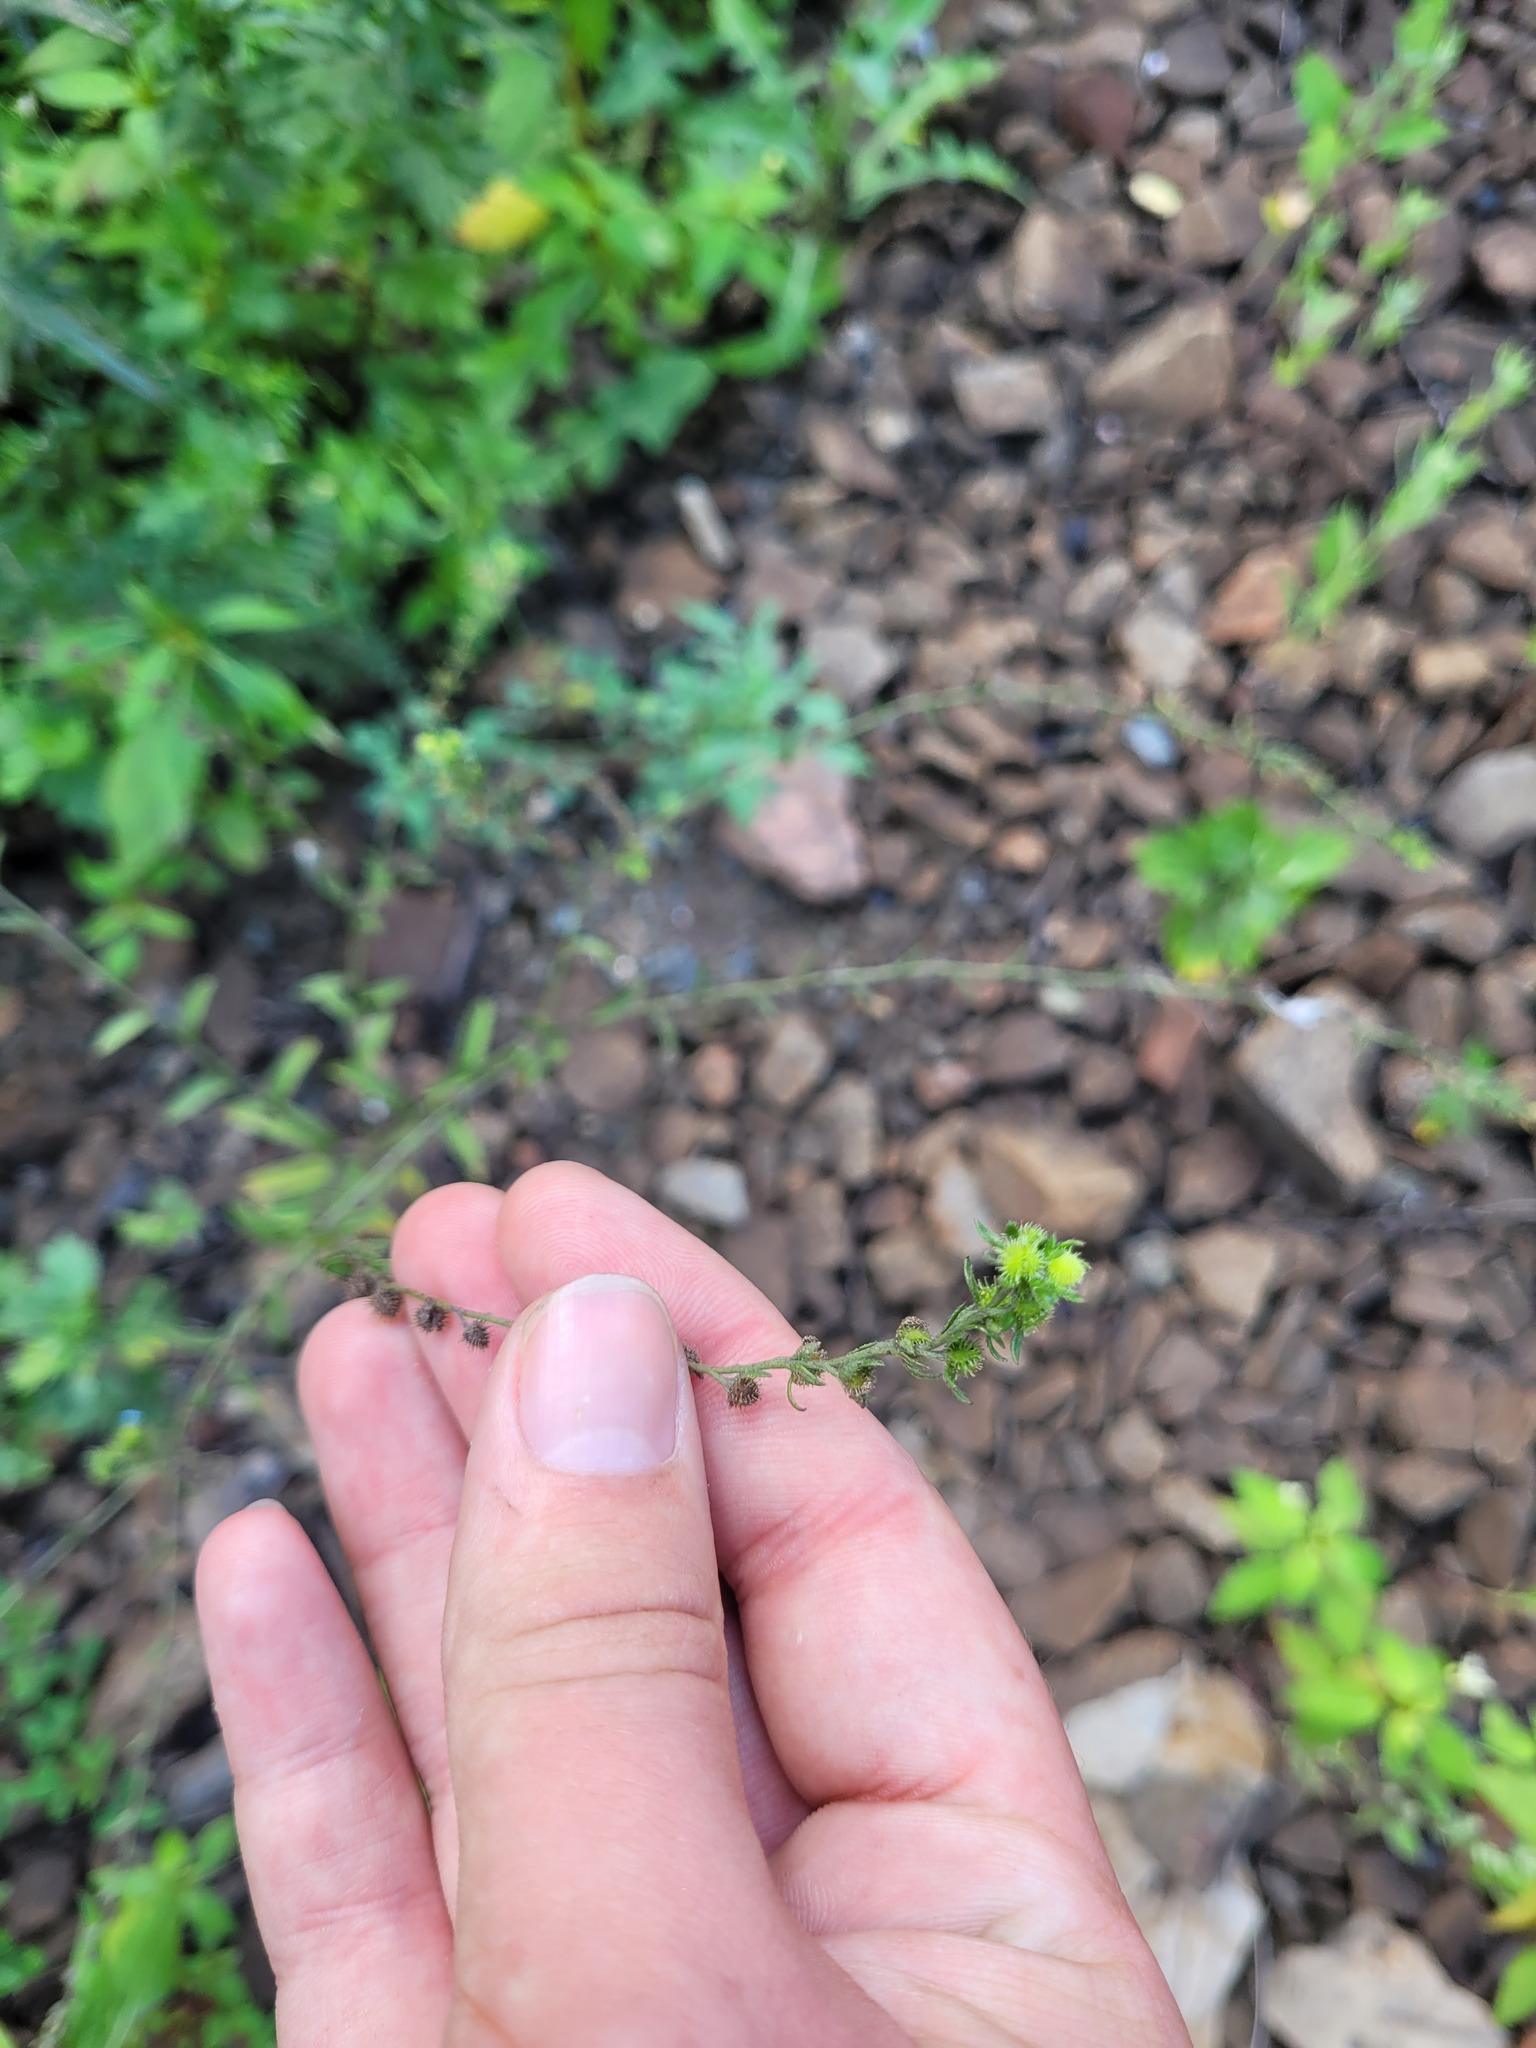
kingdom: Plantae
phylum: Tracheophyta
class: Magnoliopsida
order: Boraginales
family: Boraginaceae
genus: Lappula
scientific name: Lappula squarrosa
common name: European stickseed
